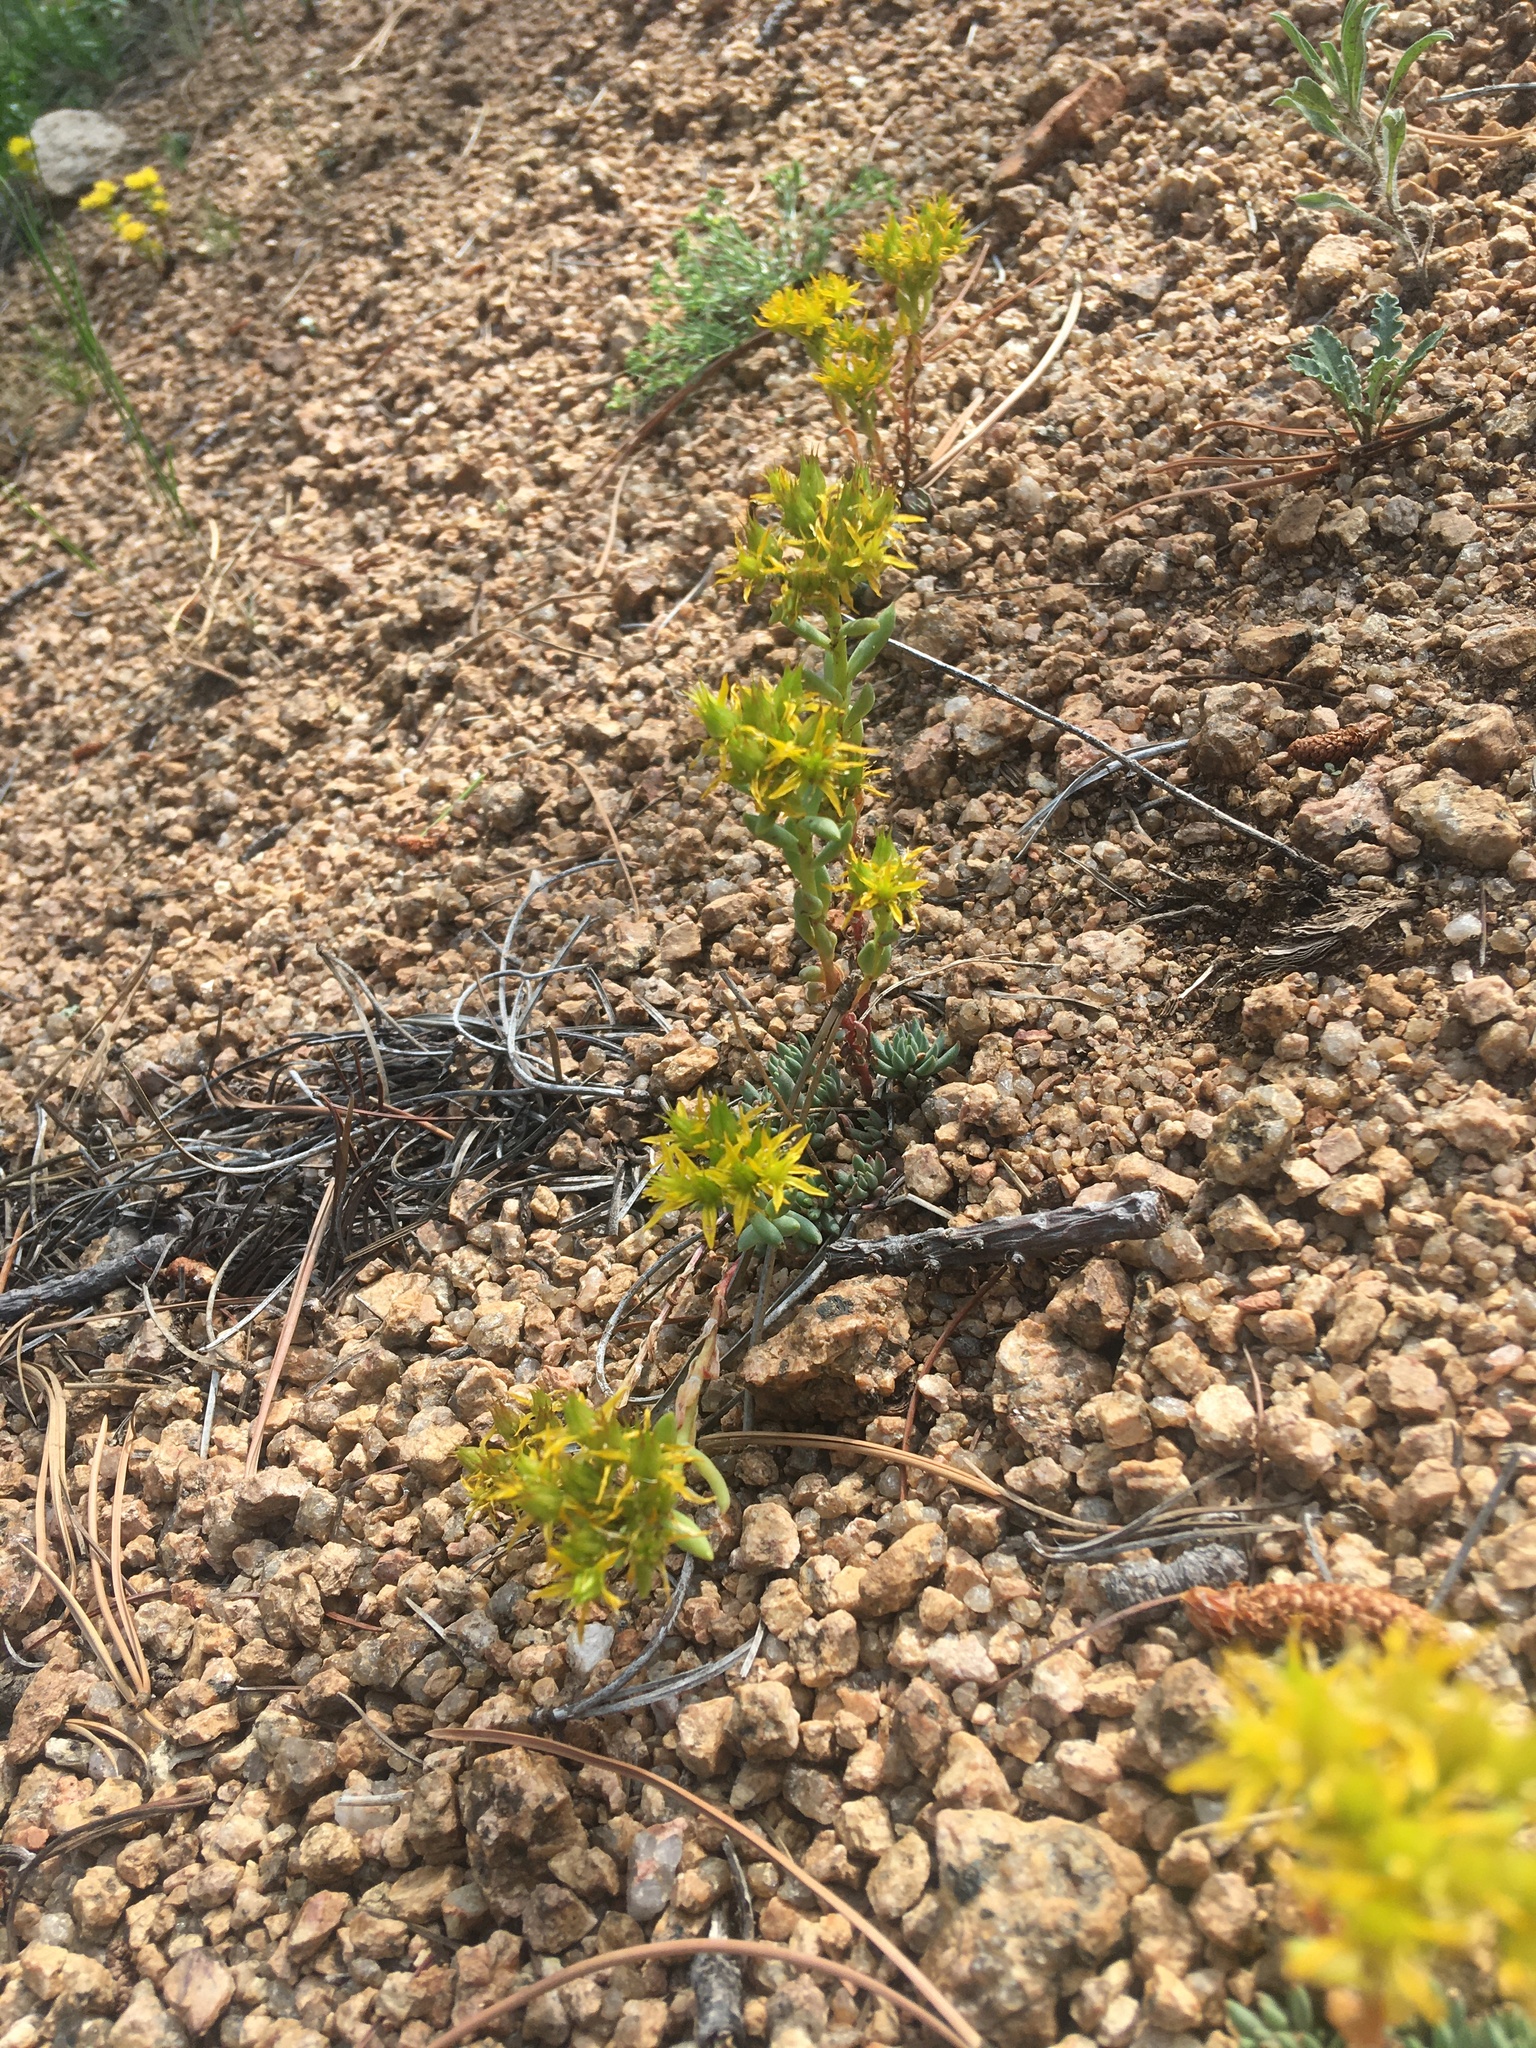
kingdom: Plantae
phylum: Tracheophyta
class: Magnoliopsida
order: Saxifragales
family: Crassulaceae
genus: Sedum
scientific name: Sedum lanceolatum
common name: Common stonecrop
